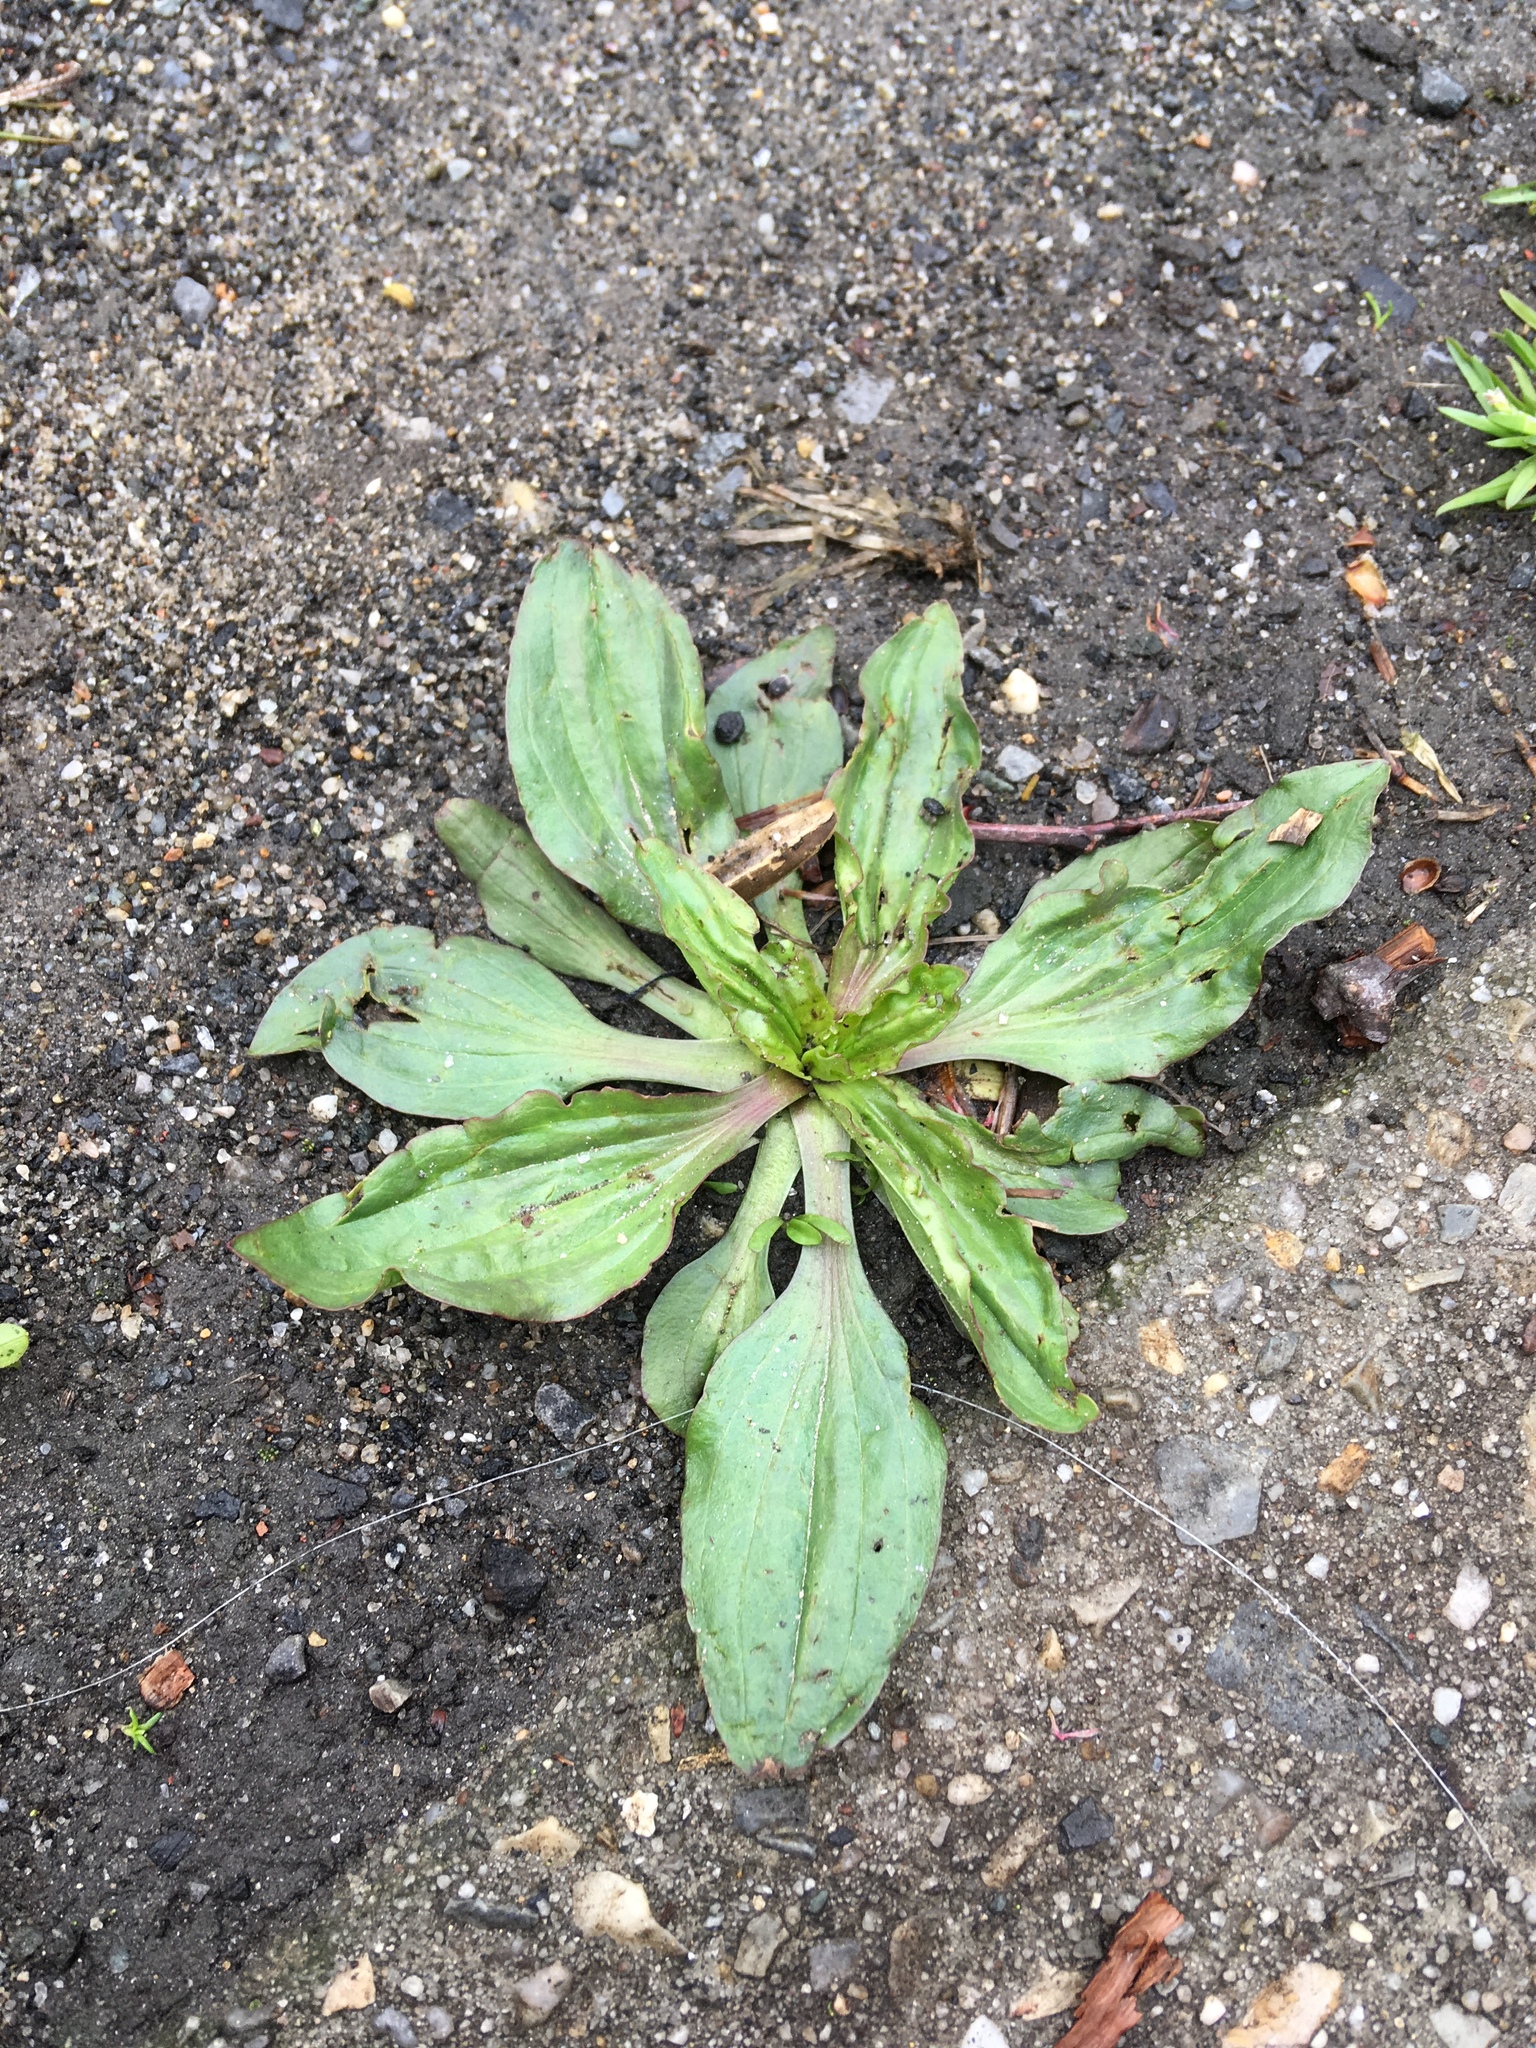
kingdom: Plantae
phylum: Tracheophyta
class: Magnoliopsida
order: Lamiales
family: Plantaginaceae
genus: Plantago
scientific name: Plantago rugelii
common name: American plantain
